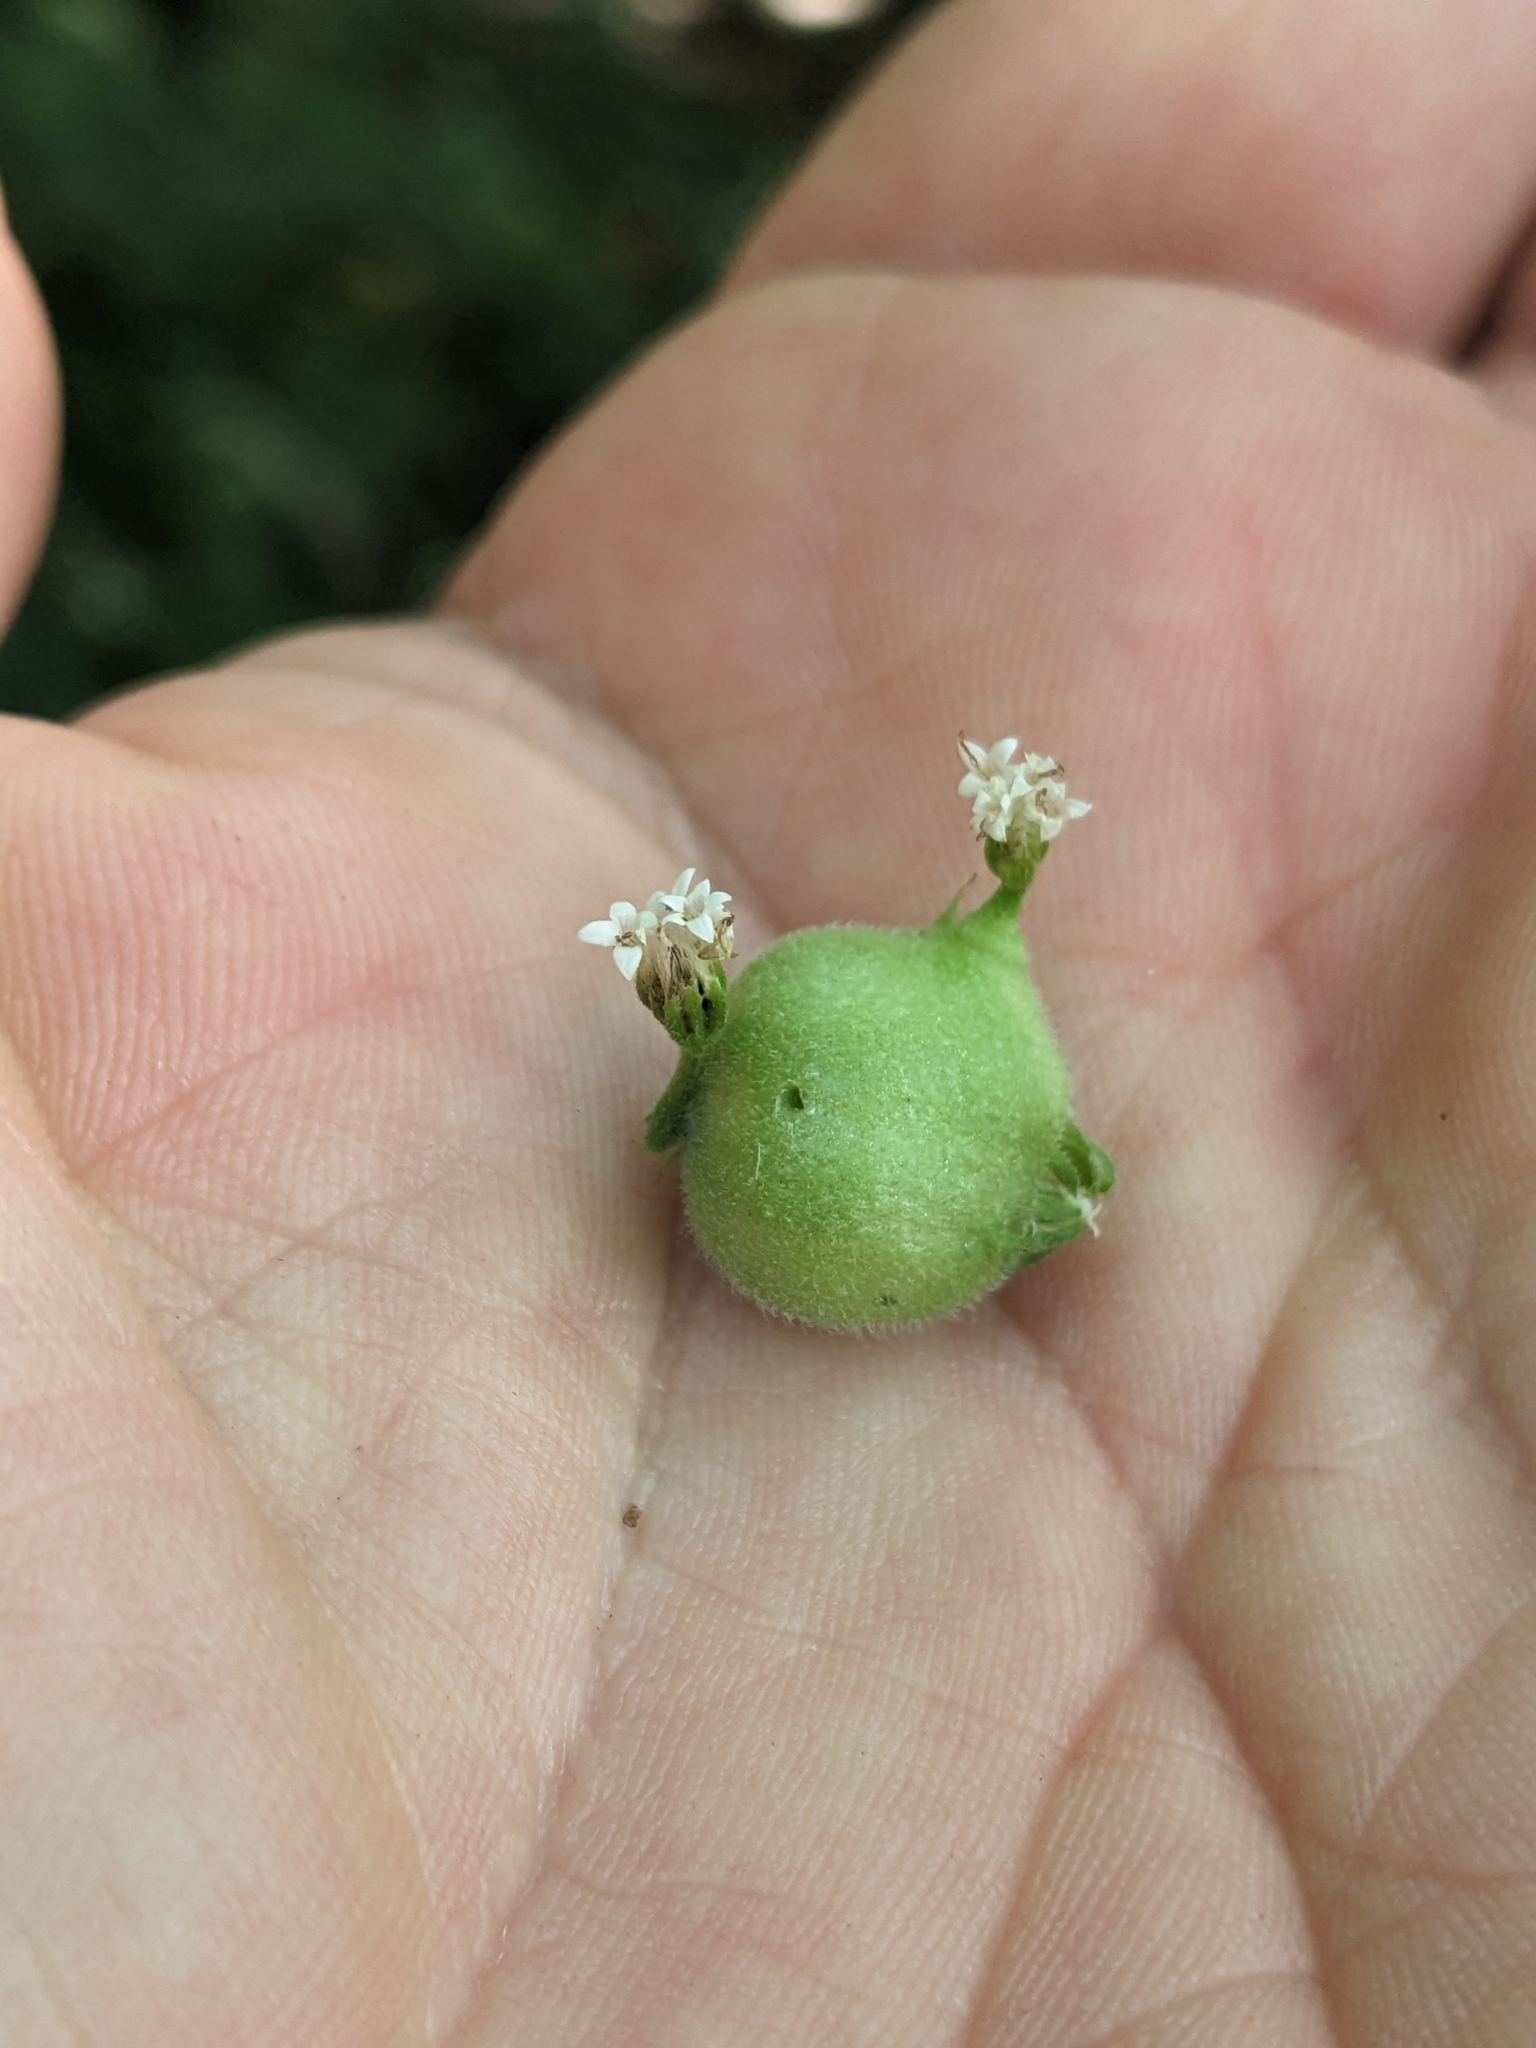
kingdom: Animalia
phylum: Arthropoda
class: Insecta
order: Diptera
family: Cecidomyiidae
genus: Schizomyia
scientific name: Schizomyia eupatoriflorae
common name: Boneset flower gall midge
